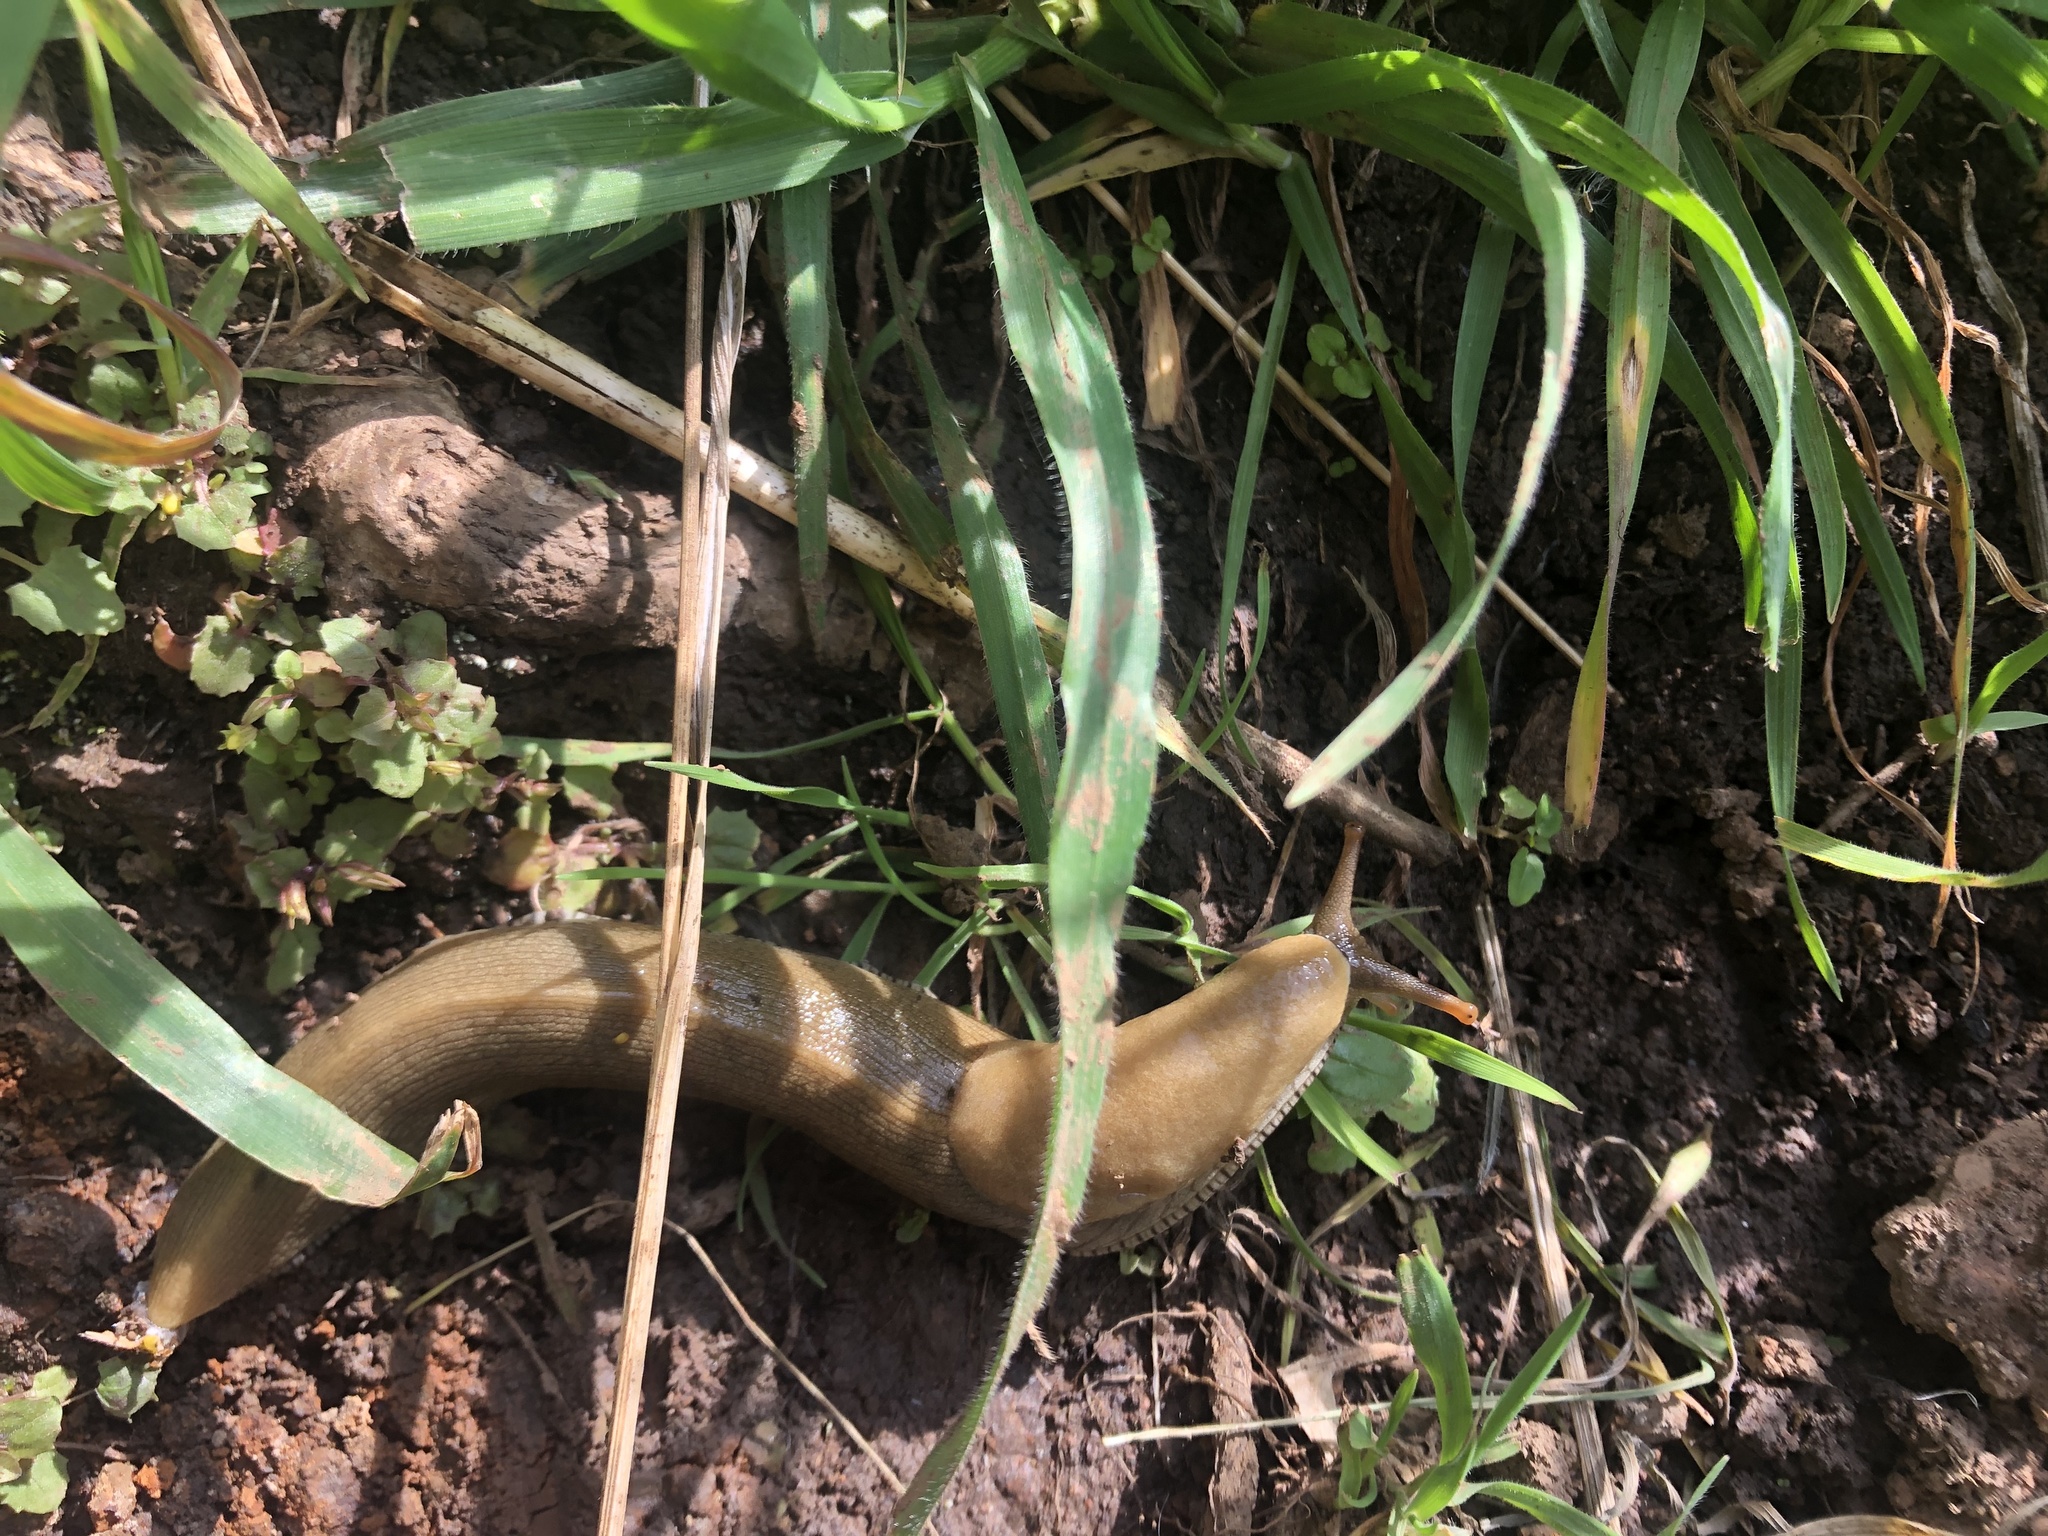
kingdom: Animalia
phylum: Mollusca
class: Gastropoda
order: Stylommatophora
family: Ariolimacidae
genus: Ariolimax
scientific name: Ariolimax buttoni
